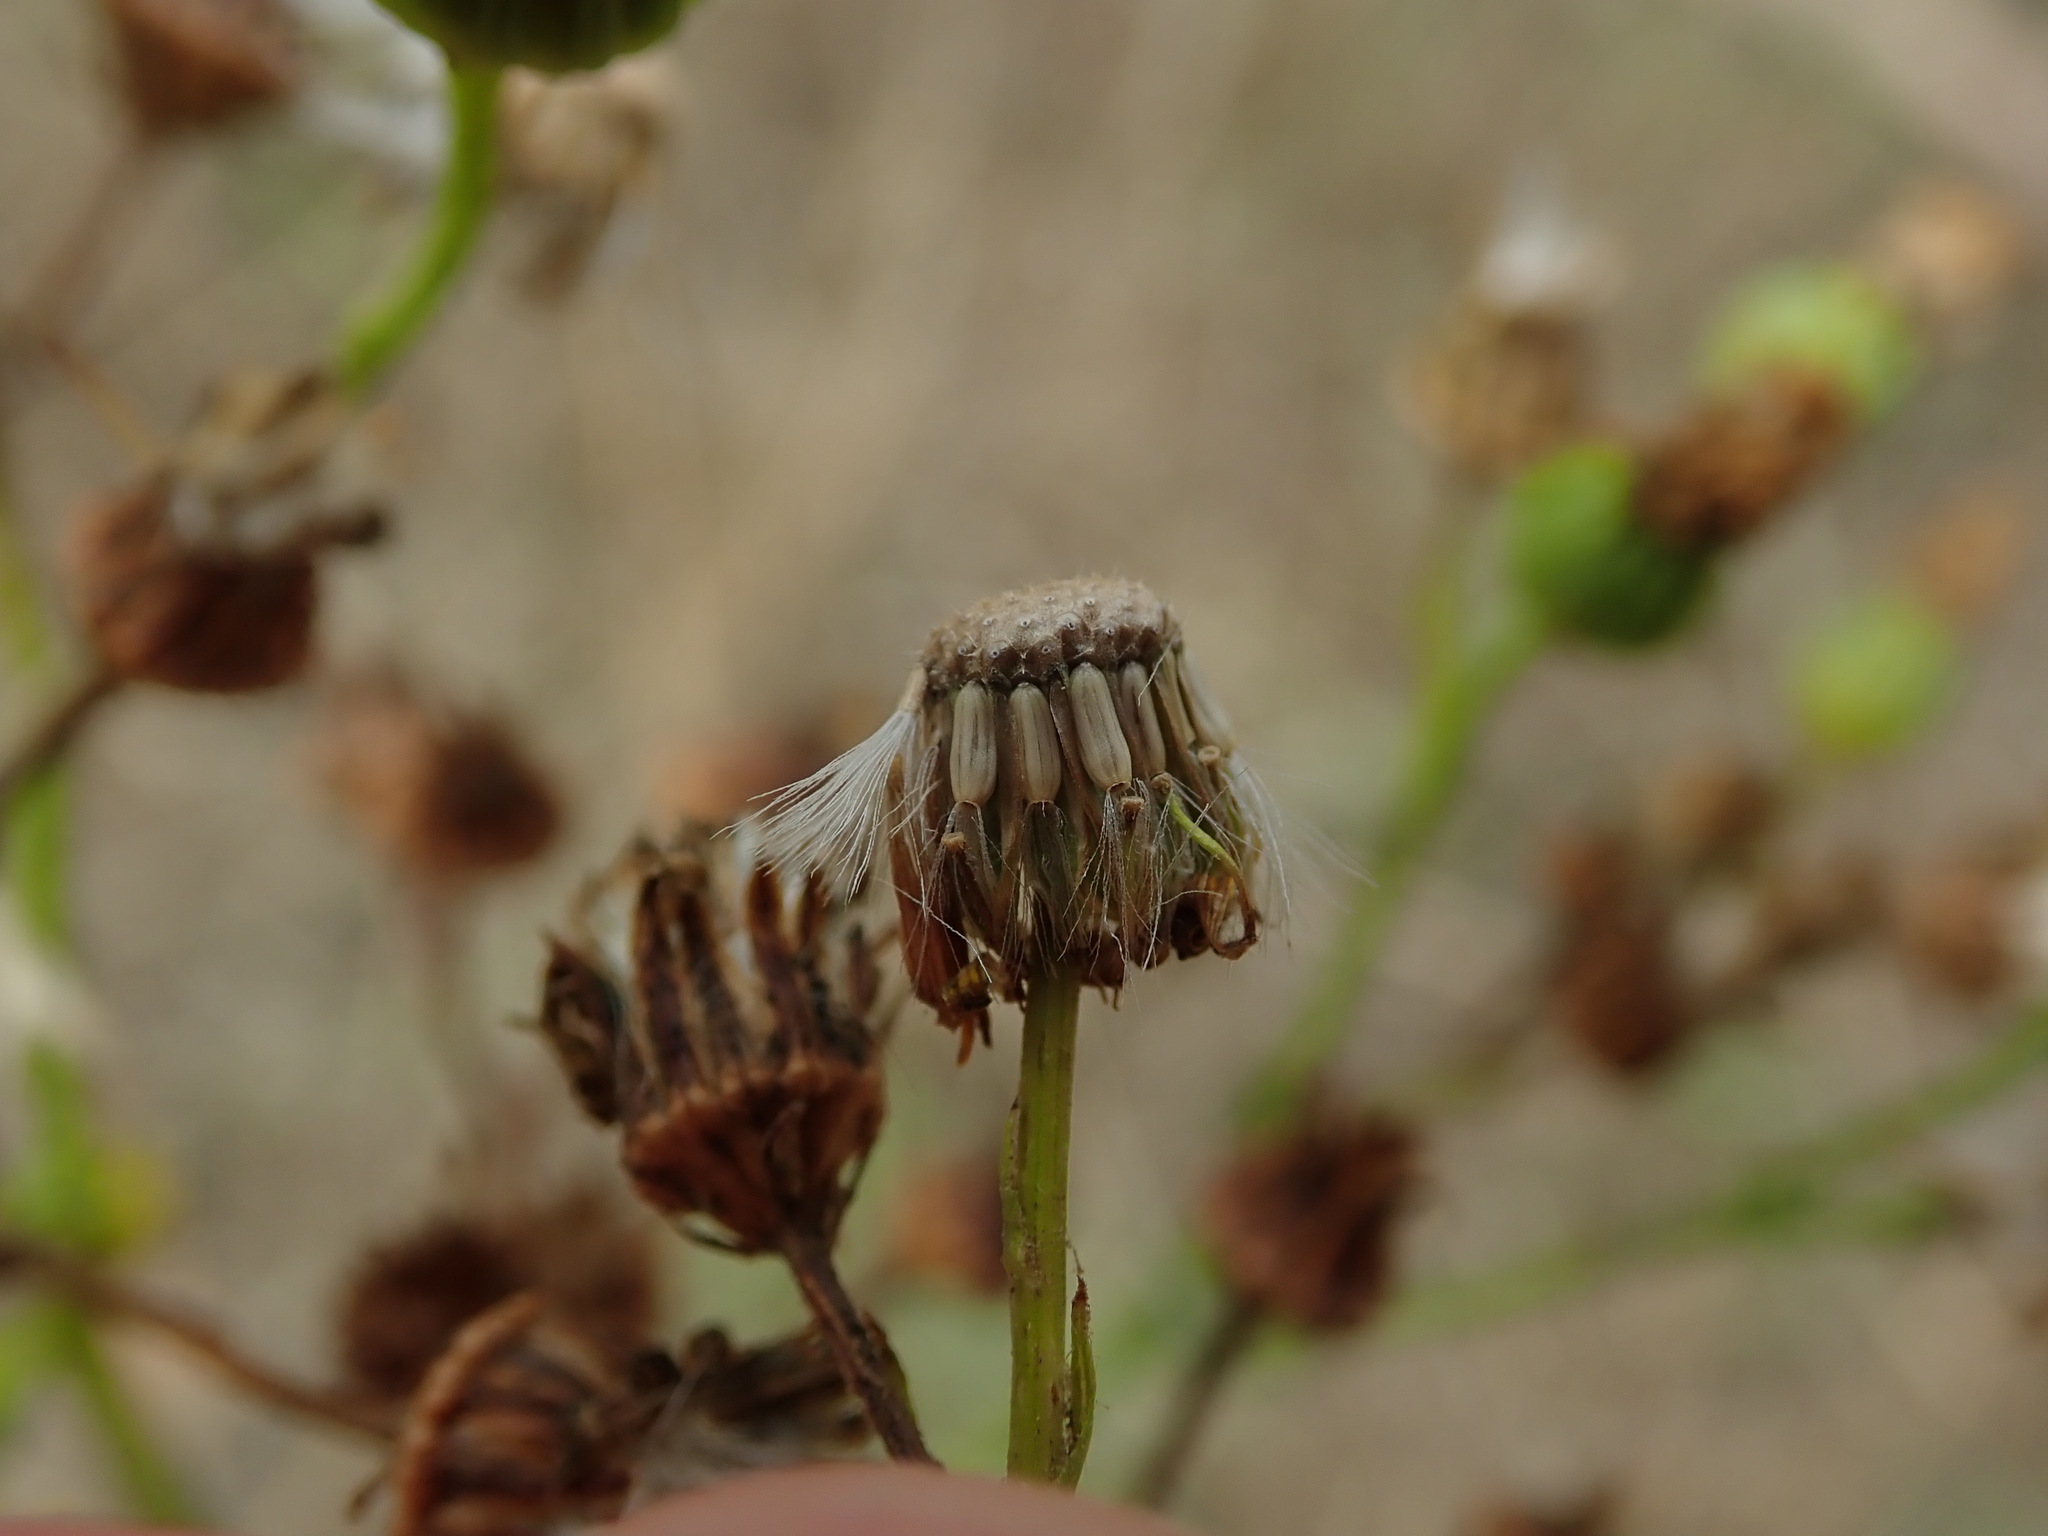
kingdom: Plantae
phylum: Tracheophyta
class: Magnoliopsida
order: Asterales
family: Asteraceae
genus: Jacobaea
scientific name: Jacobaea vulgaris
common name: Stinking willie
